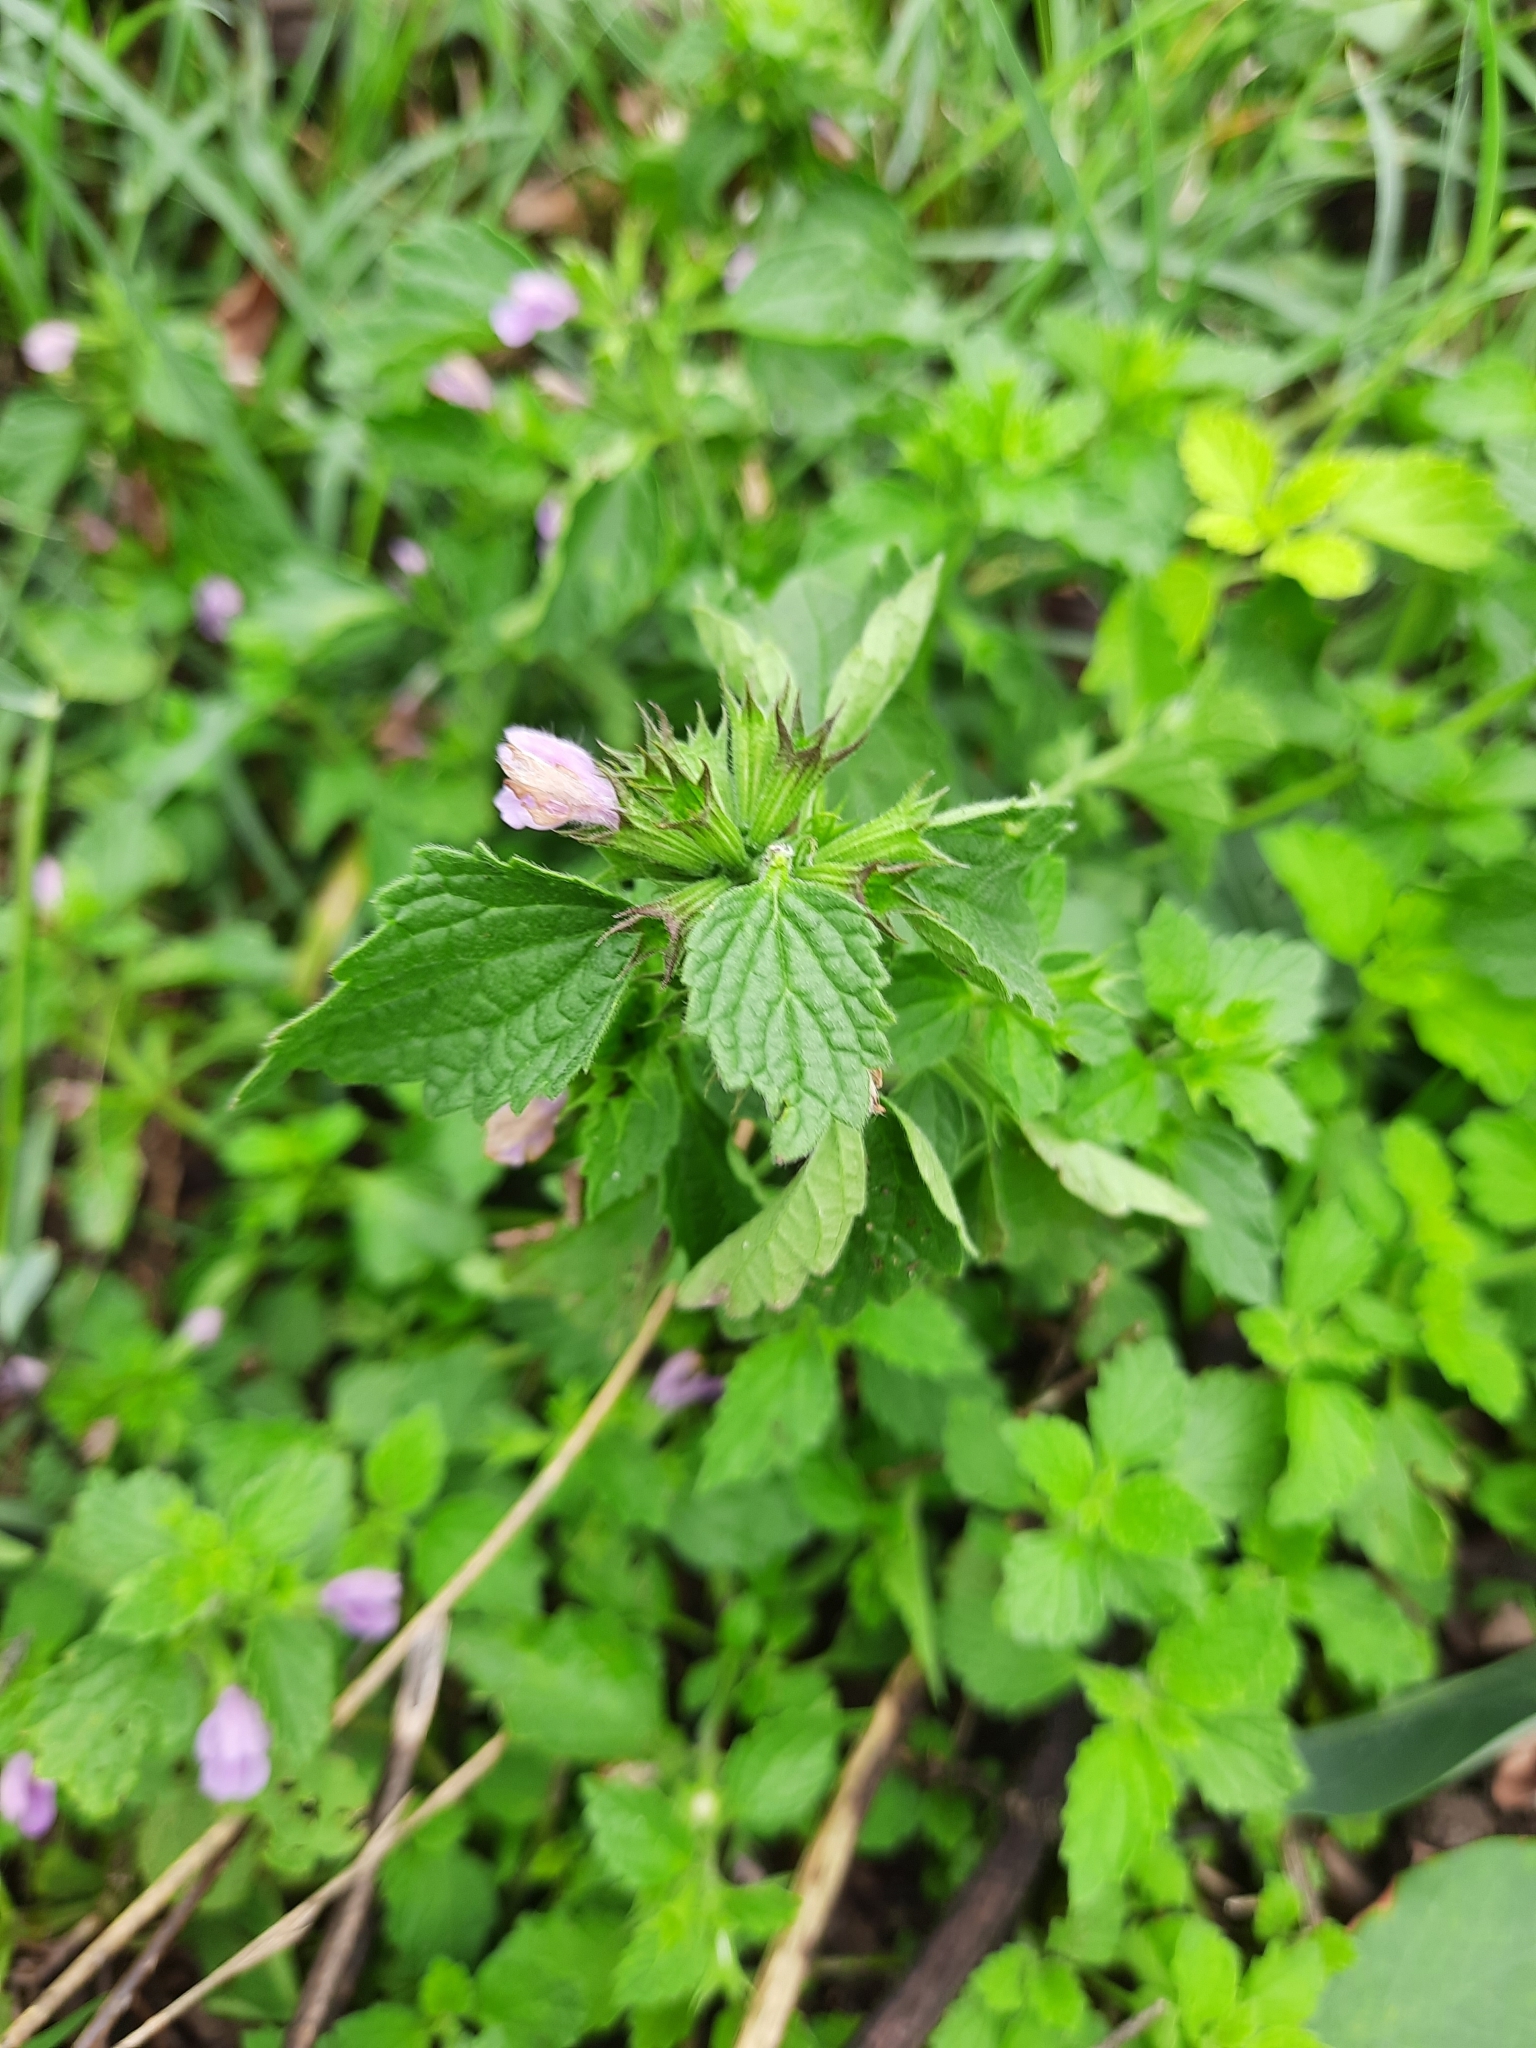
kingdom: Plantae
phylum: Tracheophyta
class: Magnoliopsida
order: Lamiales
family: Lamiaceae
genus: Ballota
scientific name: Ballota nigra
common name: Black horehound
